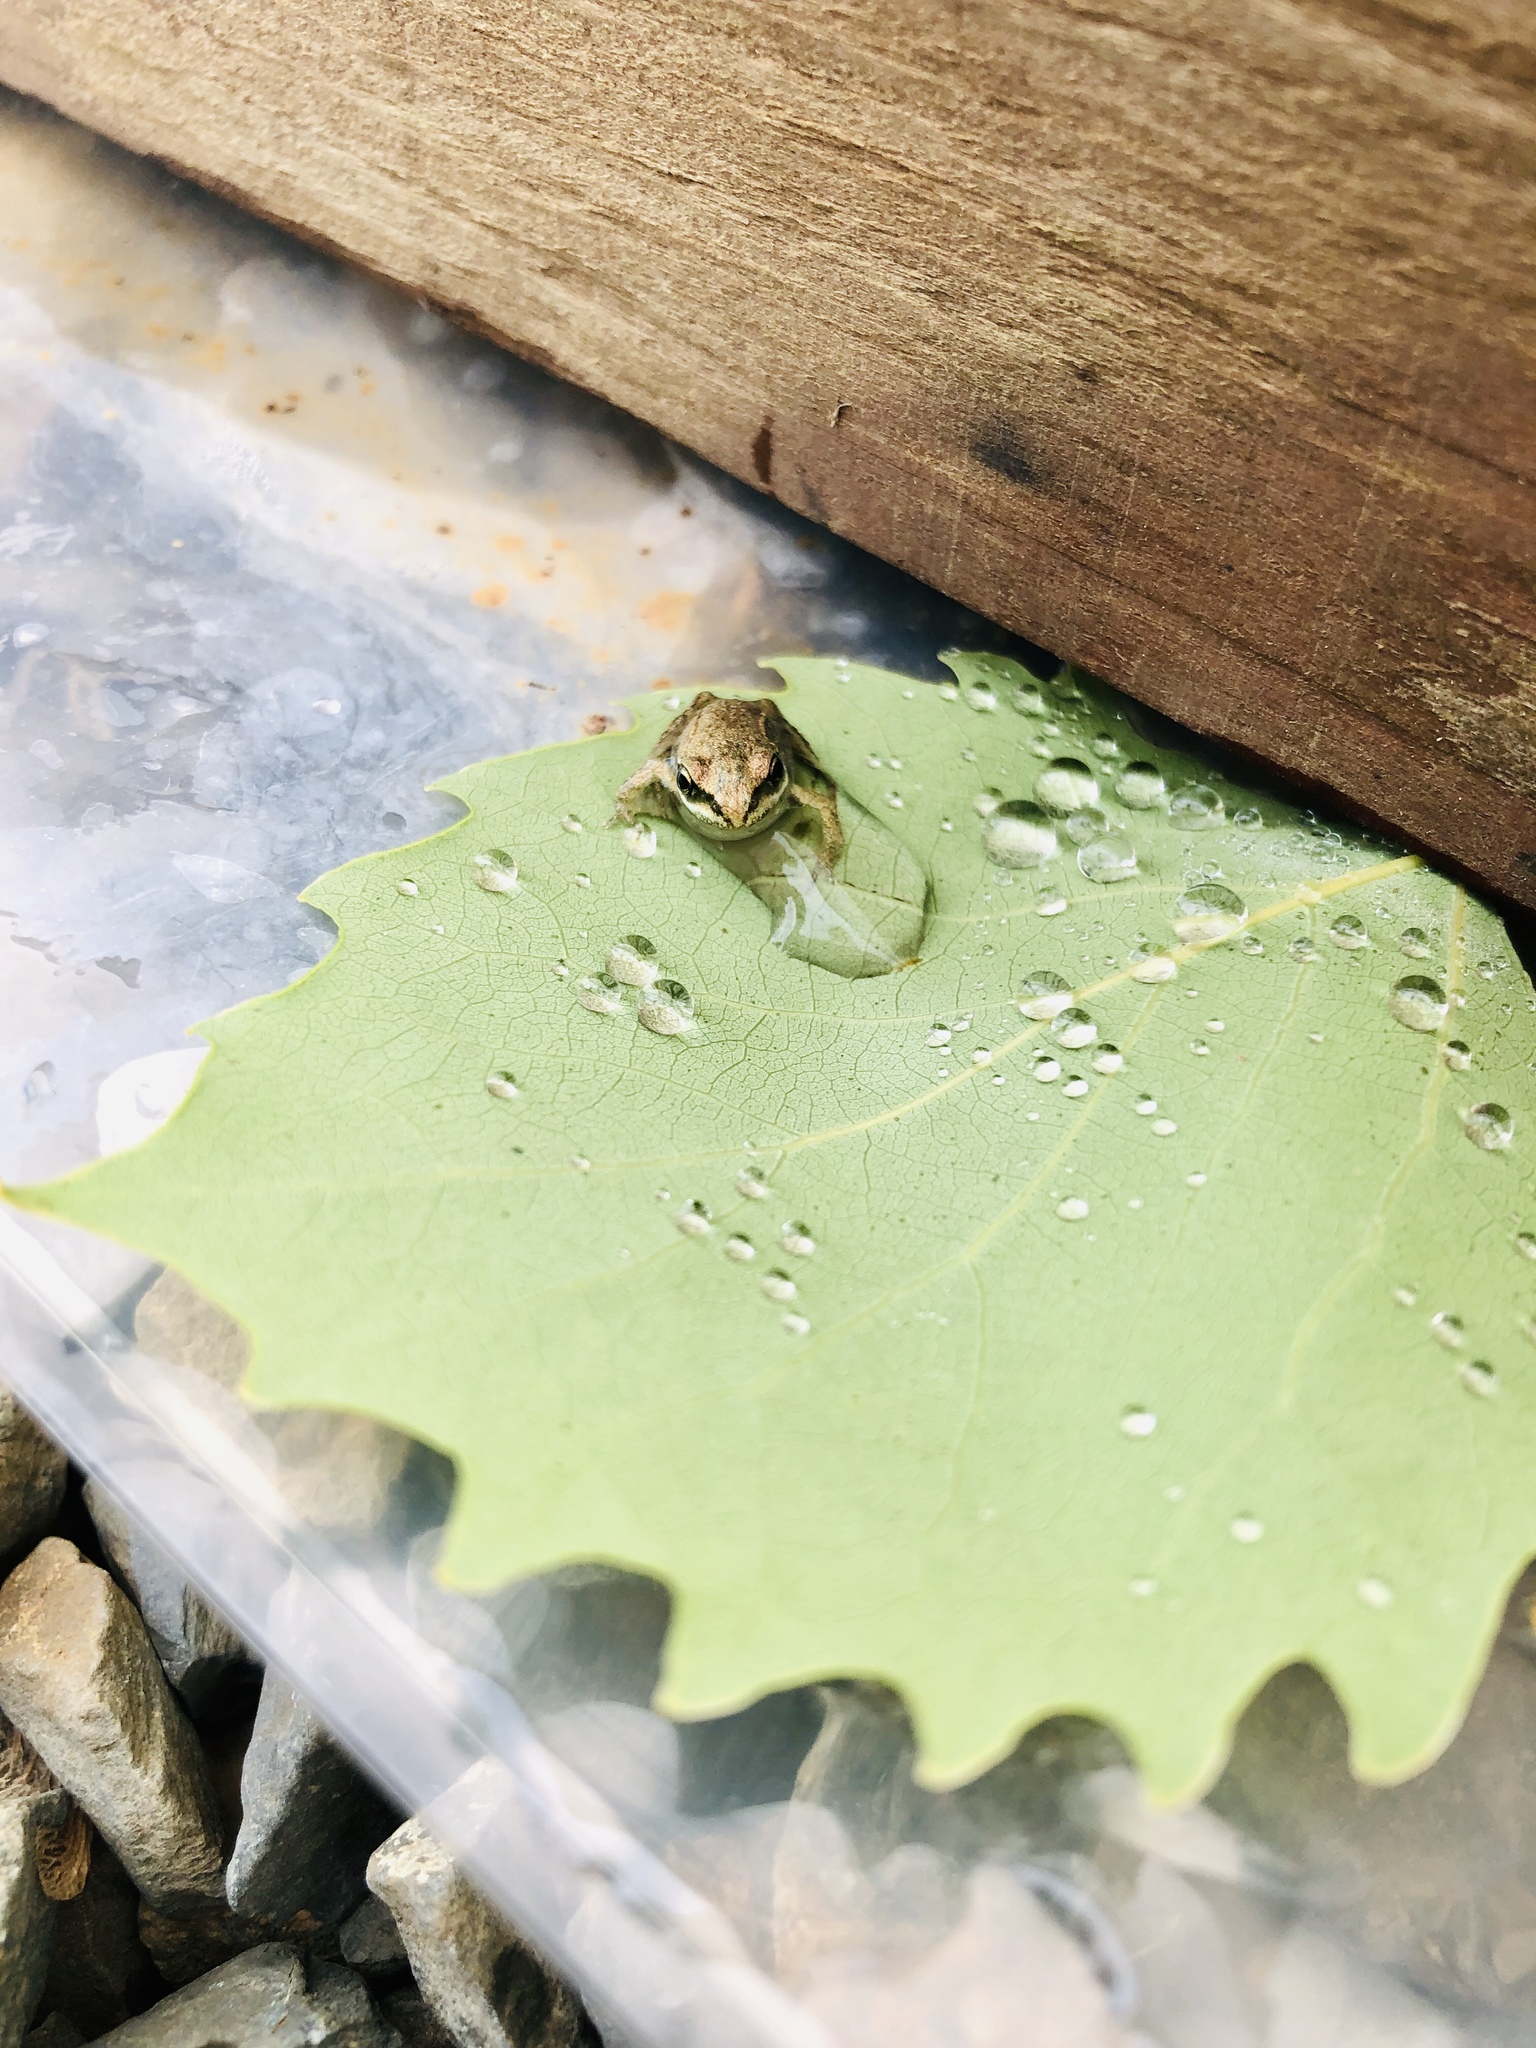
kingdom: Animalia
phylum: Chordata
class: Amphibia
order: Anura
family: Ranidae
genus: Lithobates
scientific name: Lithobates sylvaticus
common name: Wood frog
